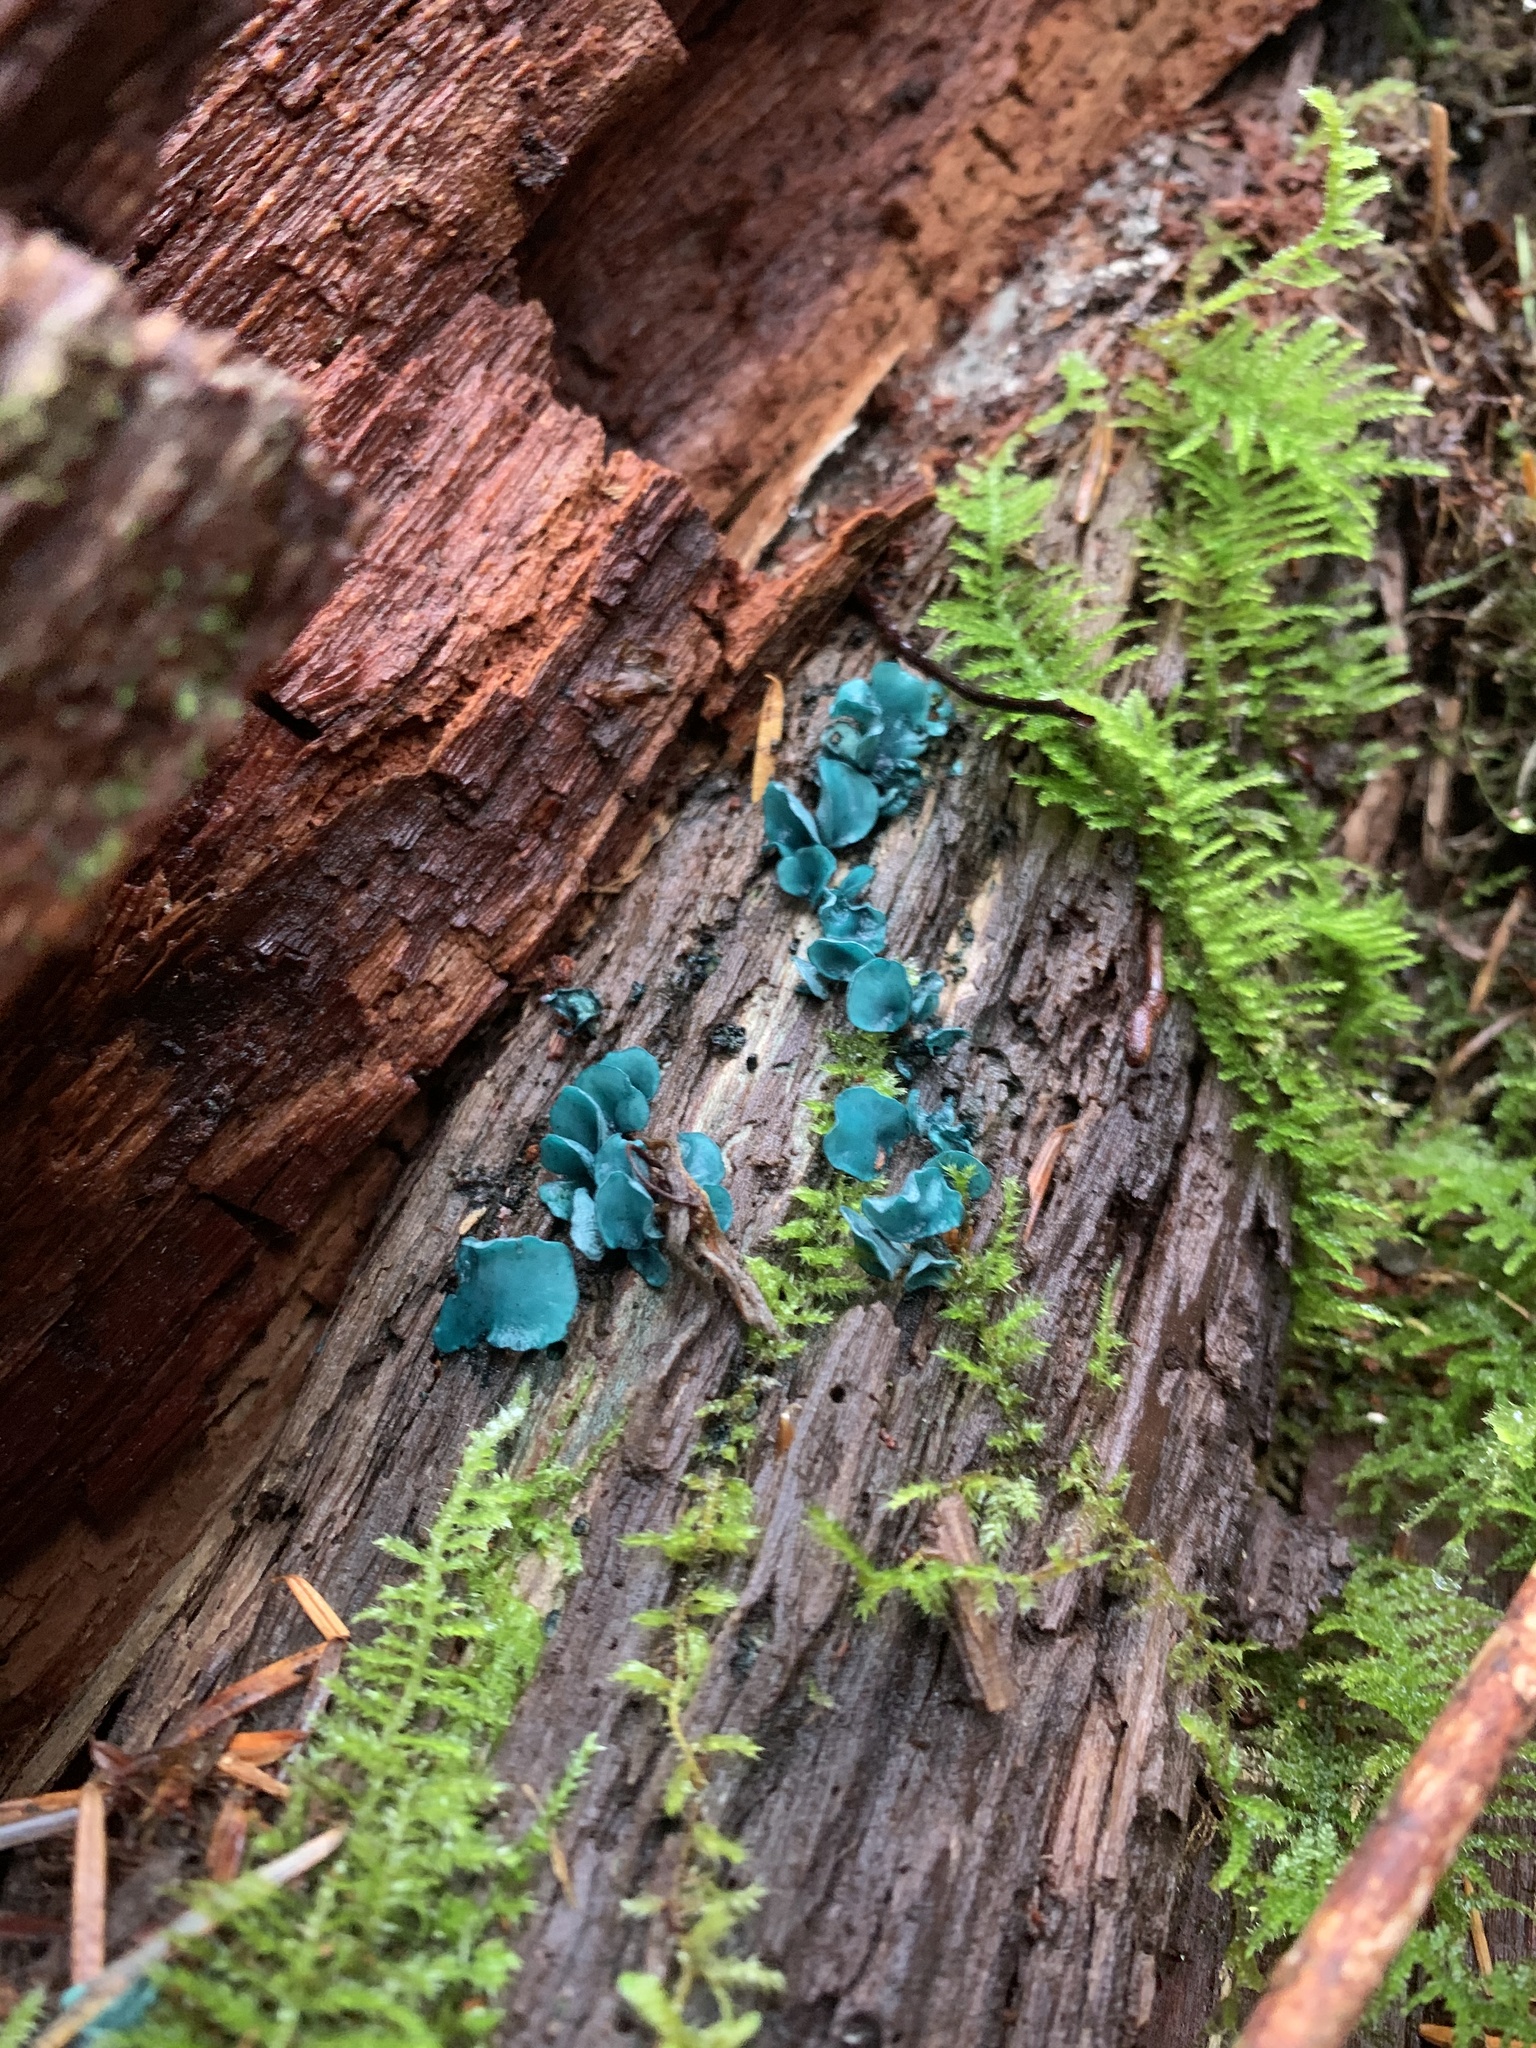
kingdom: Fungi
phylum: Ascomycota
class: Leotiomycetes
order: Helotiales
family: Chlorociboriaceae
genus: Chlorociboria
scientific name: Chlorociboria aeruginascens
